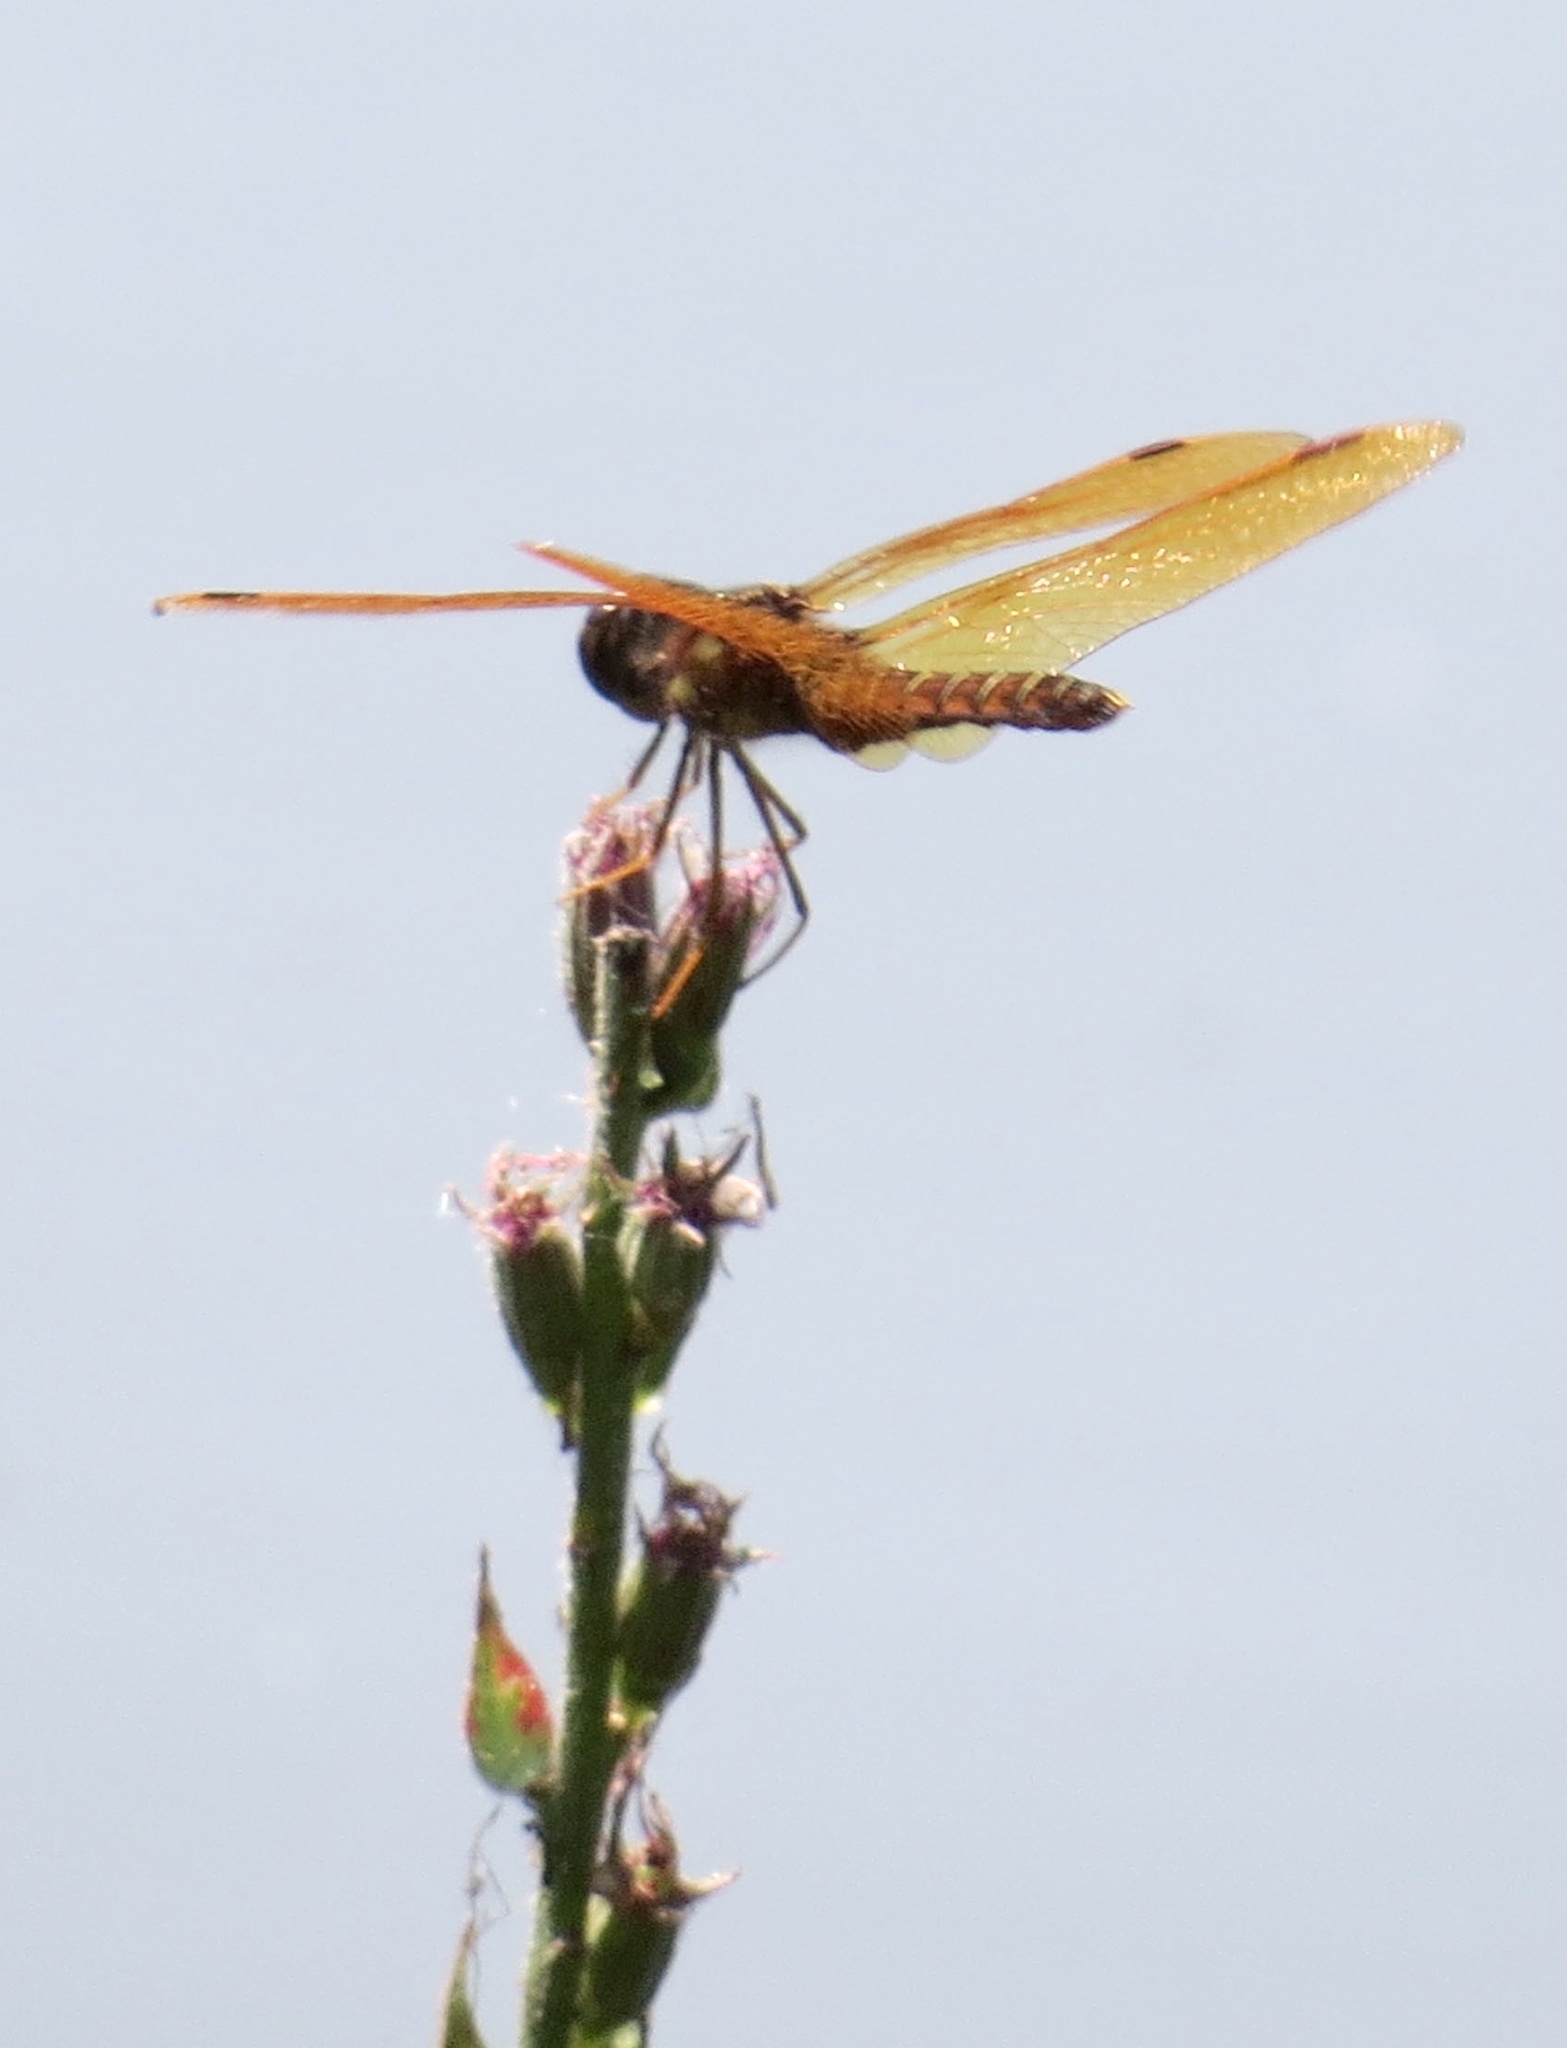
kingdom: Animalia
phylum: Arthropoda
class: Insecta
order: Odonata
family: Libellulidae
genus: Perithemis
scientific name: Perithemis tenera
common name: Eastern amberwing
